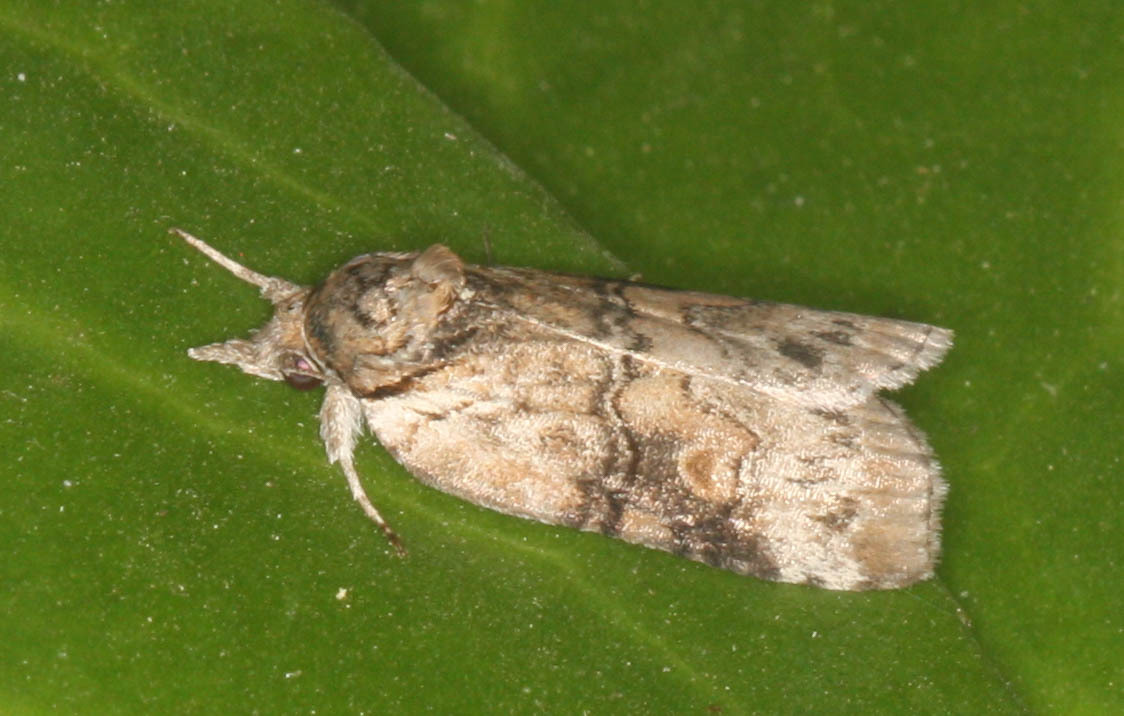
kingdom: Animalia
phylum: Arthropoda
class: Insecta
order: Lepidoptera
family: Nolidae
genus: Nycteola
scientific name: Nycteola cinereana
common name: Grey midget moth
